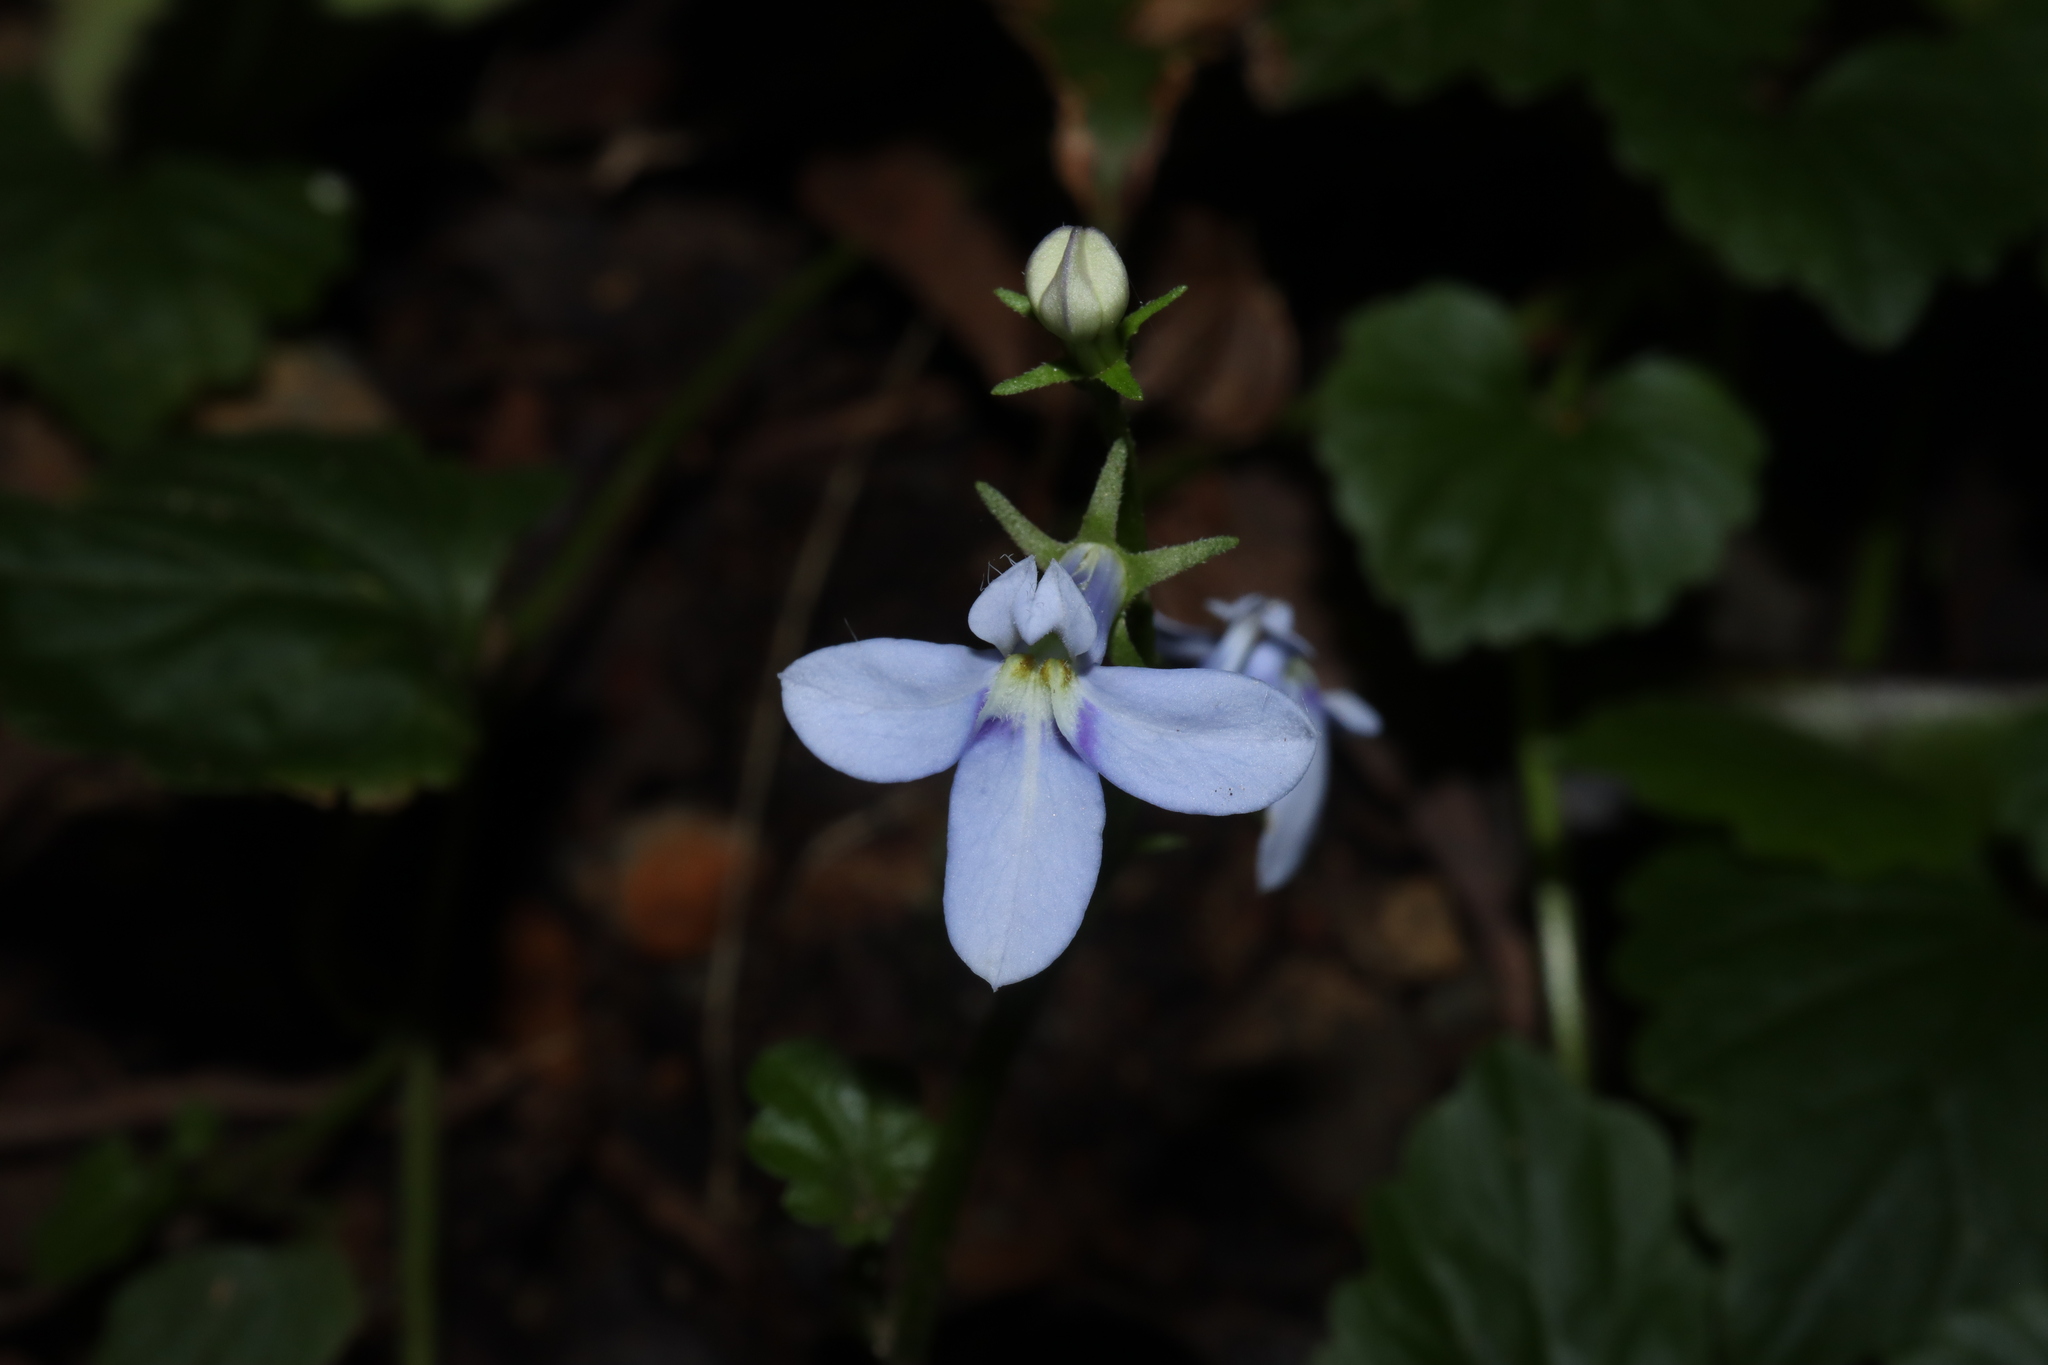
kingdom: Plantae
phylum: Tracheophyta
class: Magnoliopsida
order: Asterales
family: Campanulaceae
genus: Lobelia
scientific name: Lobelia trigonocaulis
